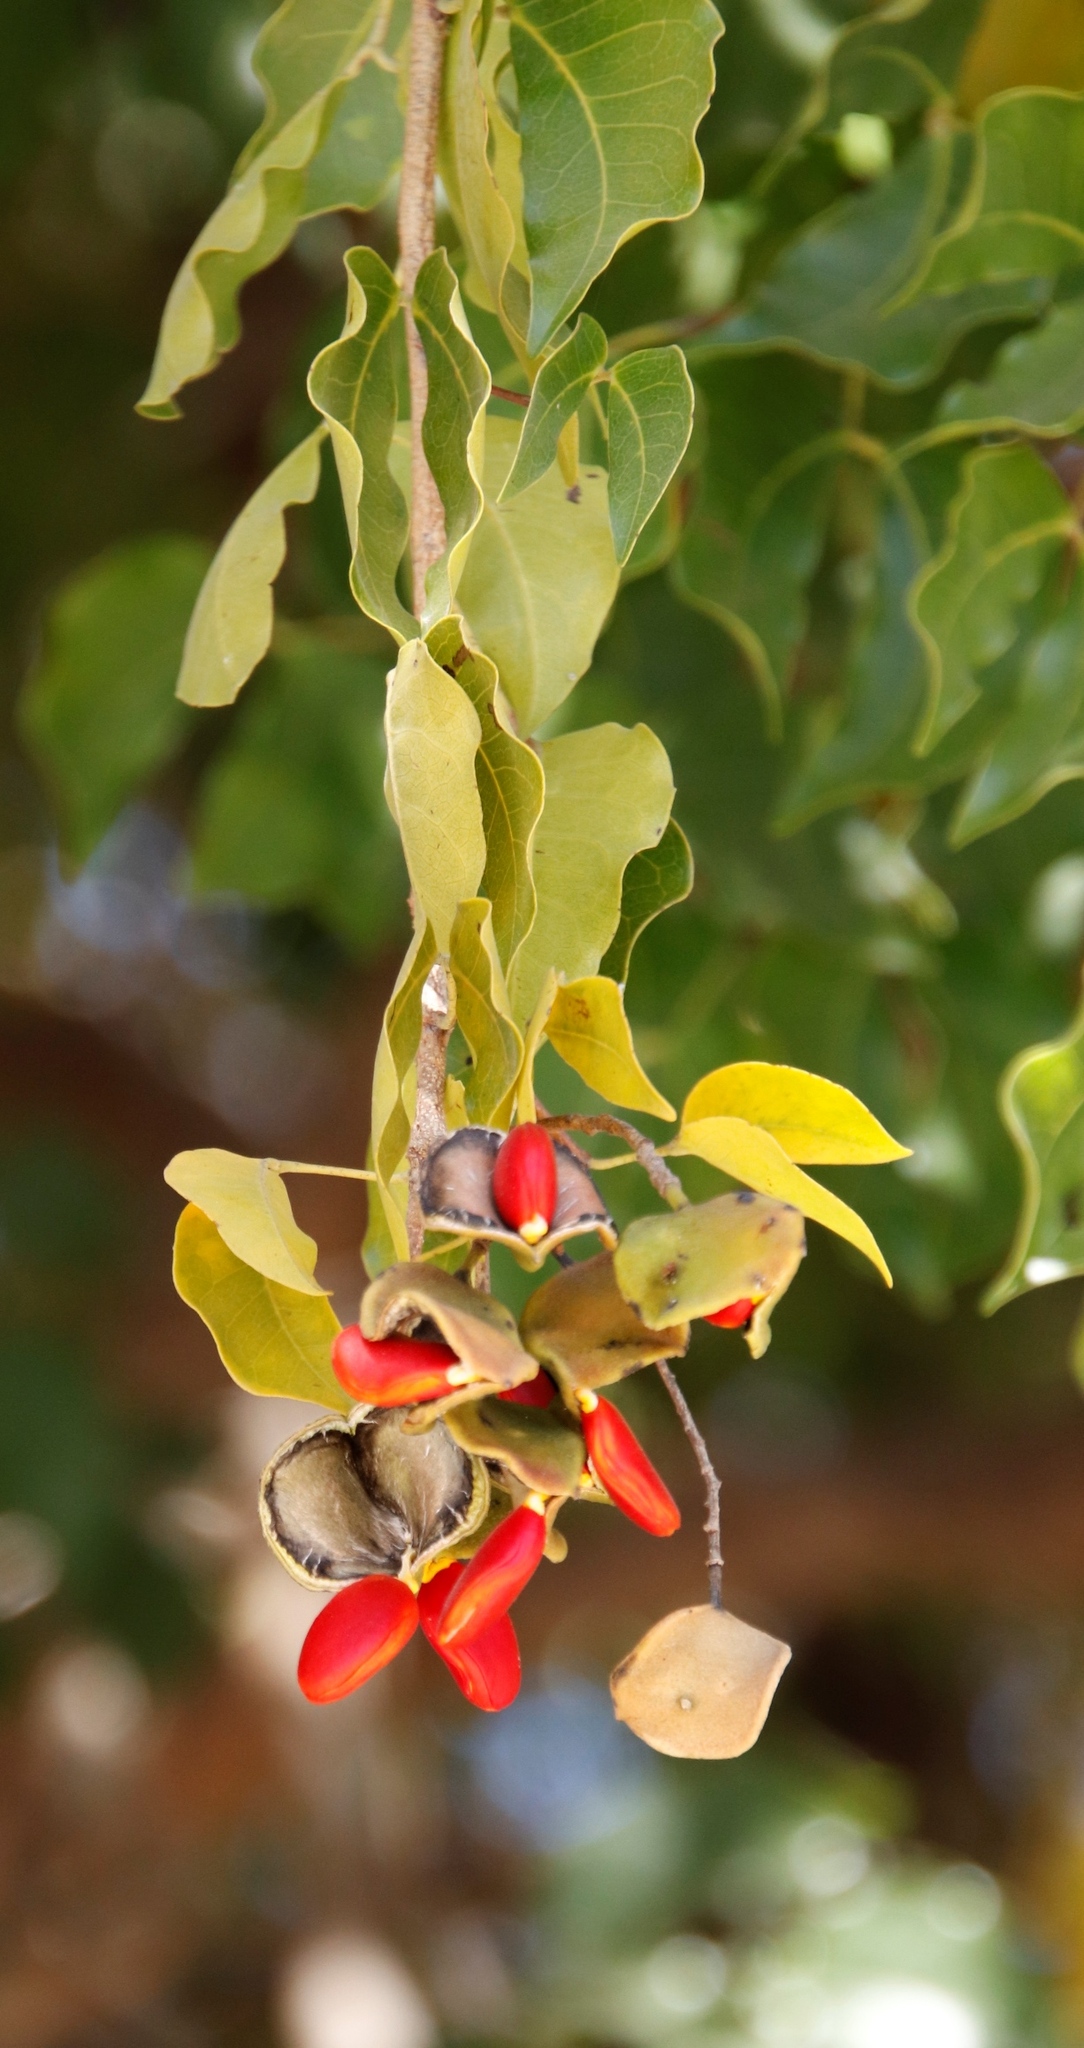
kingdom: Plantae
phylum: Tracheophyta
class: Magnoliopsida
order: Fabales
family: Fabaceae
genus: Guibourtia
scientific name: Guibourtia coleosperma
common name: African rosewoood
